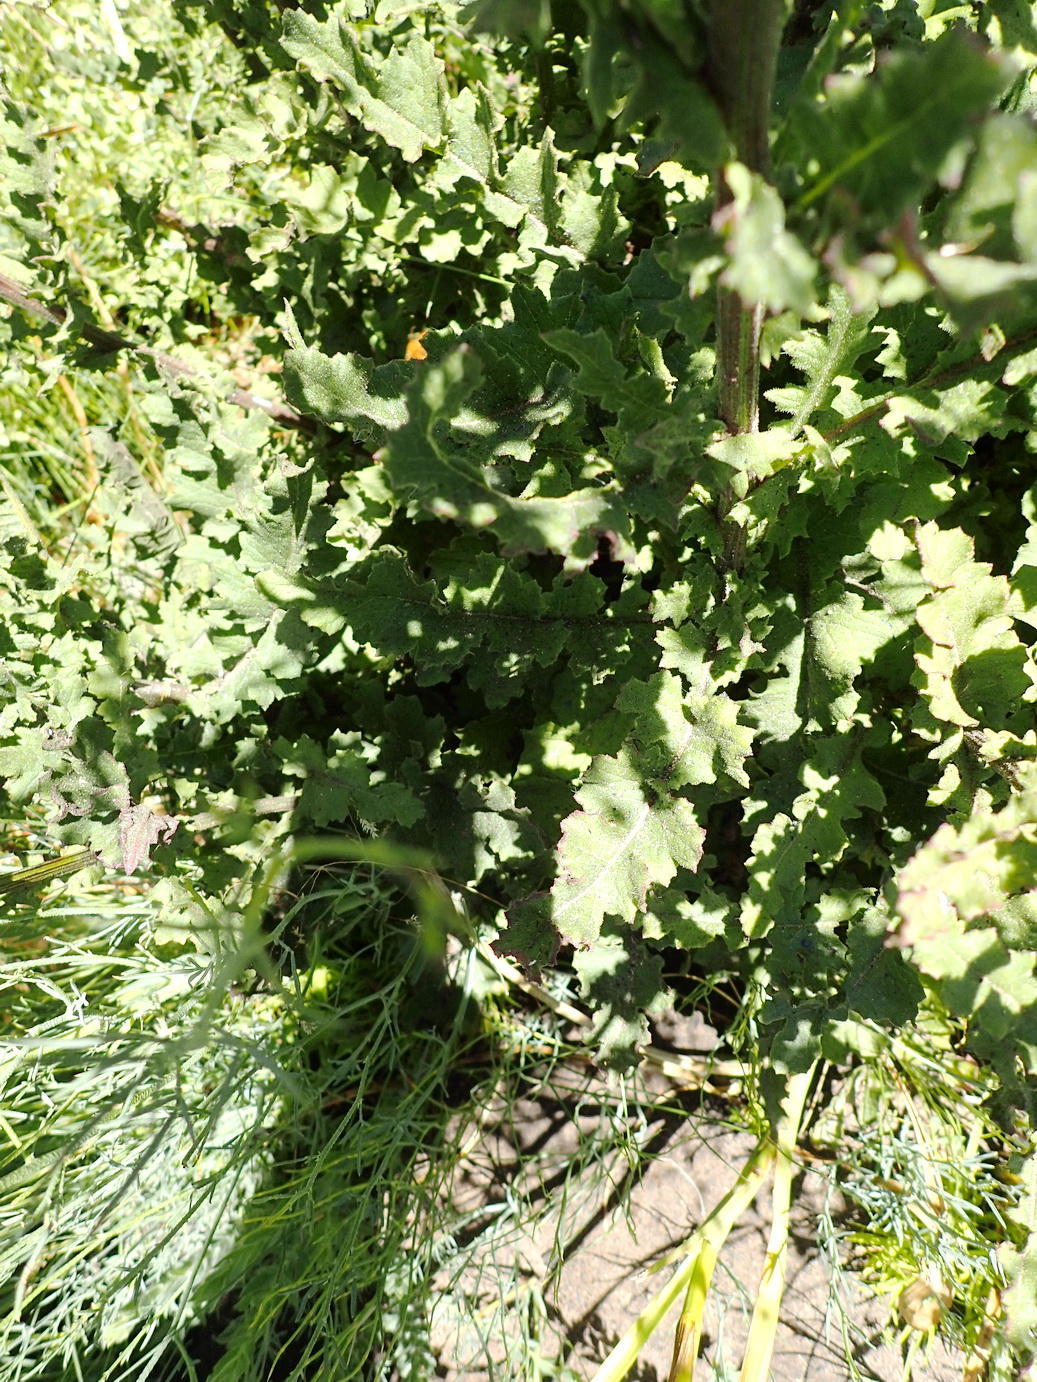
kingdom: Plantae
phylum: Tracheophyta
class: Magnoliopsida
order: Asterales
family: Asteraceae
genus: Senecio
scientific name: Senecio purpureus
